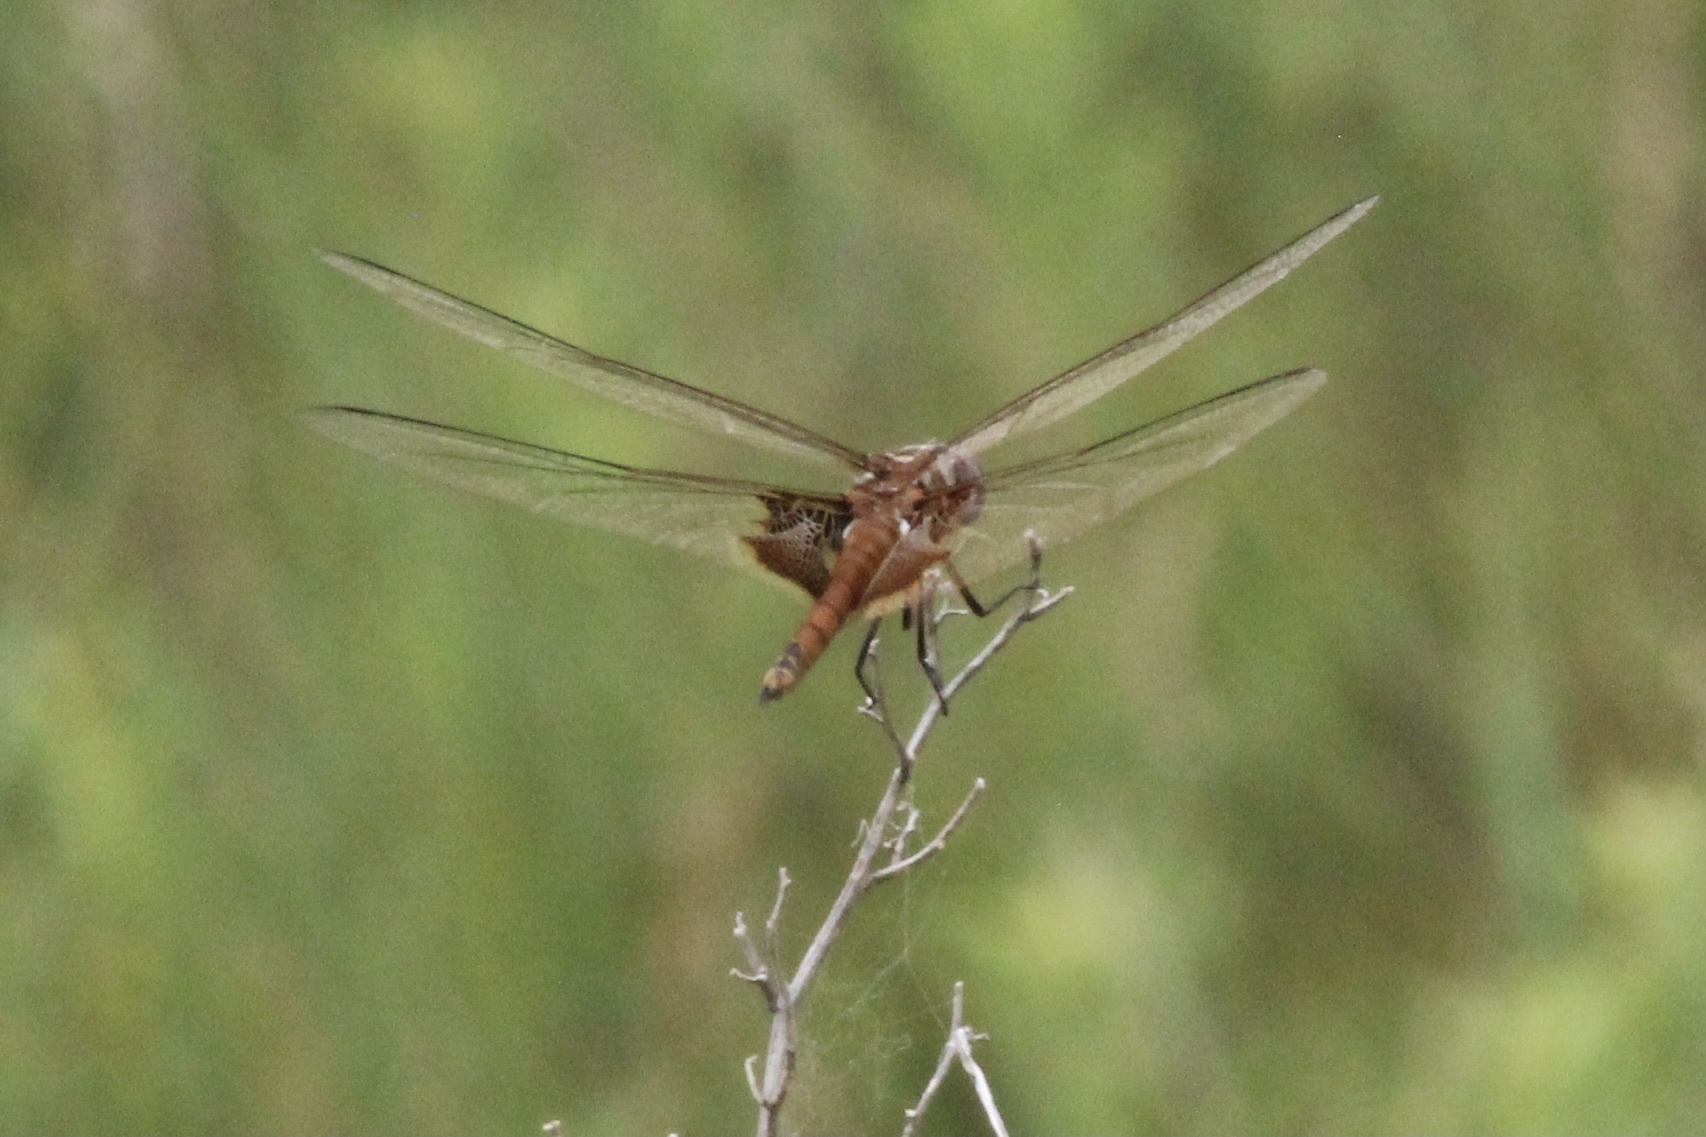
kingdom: Animalia
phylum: Arthropoda
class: Insecta
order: Odonata
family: Libellulidae
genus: Tramea
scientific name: Tramea onusta
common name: Red saddlebags
